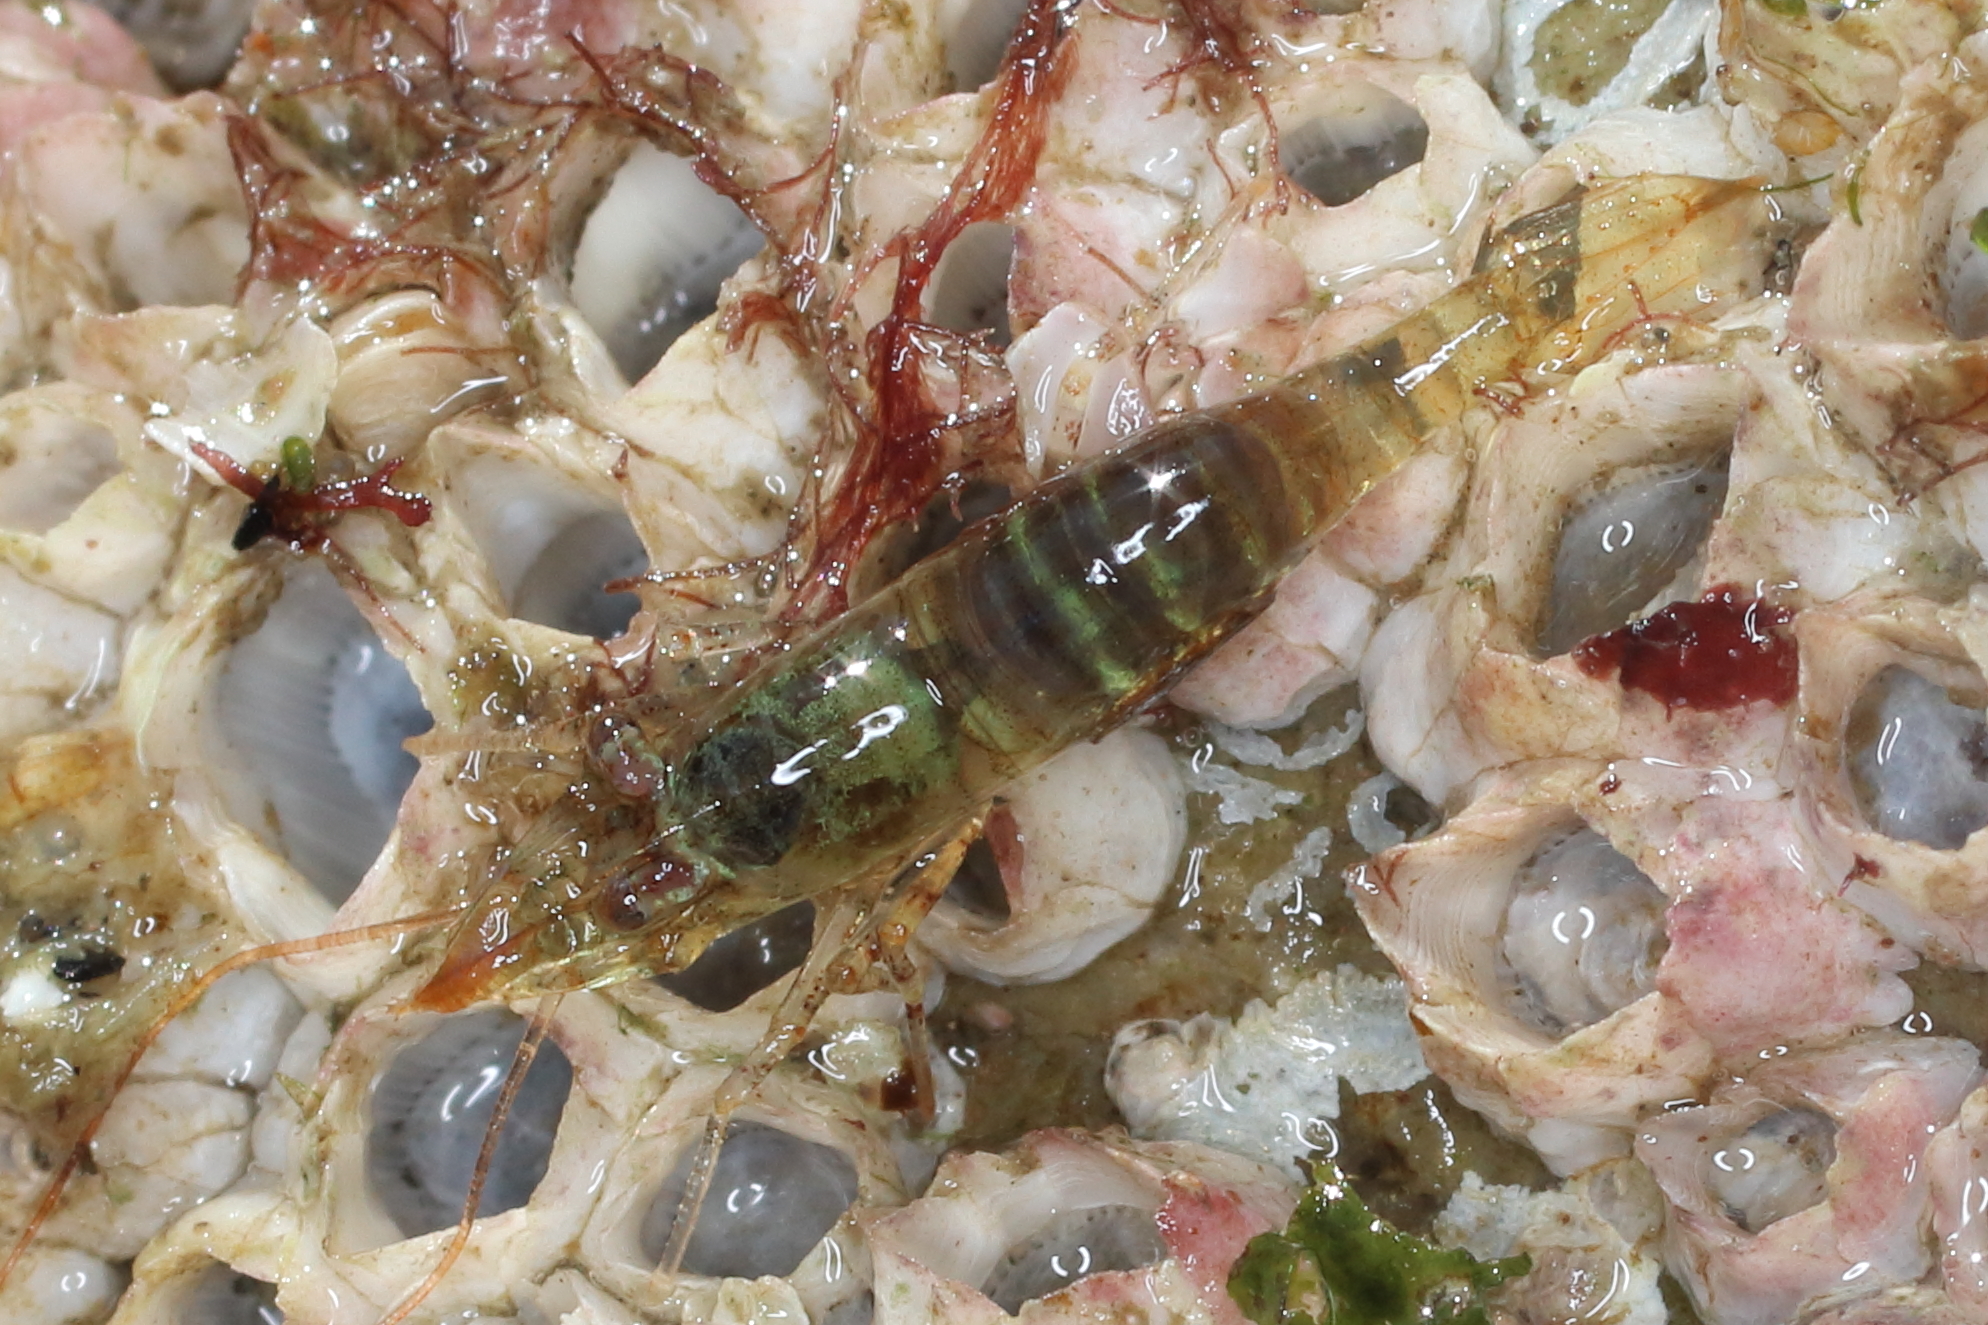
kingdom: Animalia
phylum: Arthropoda
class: Malacostraca
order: Decapoda
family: Thoridae
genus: Heptacarpus
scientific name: Heptacarpus pugettensis
